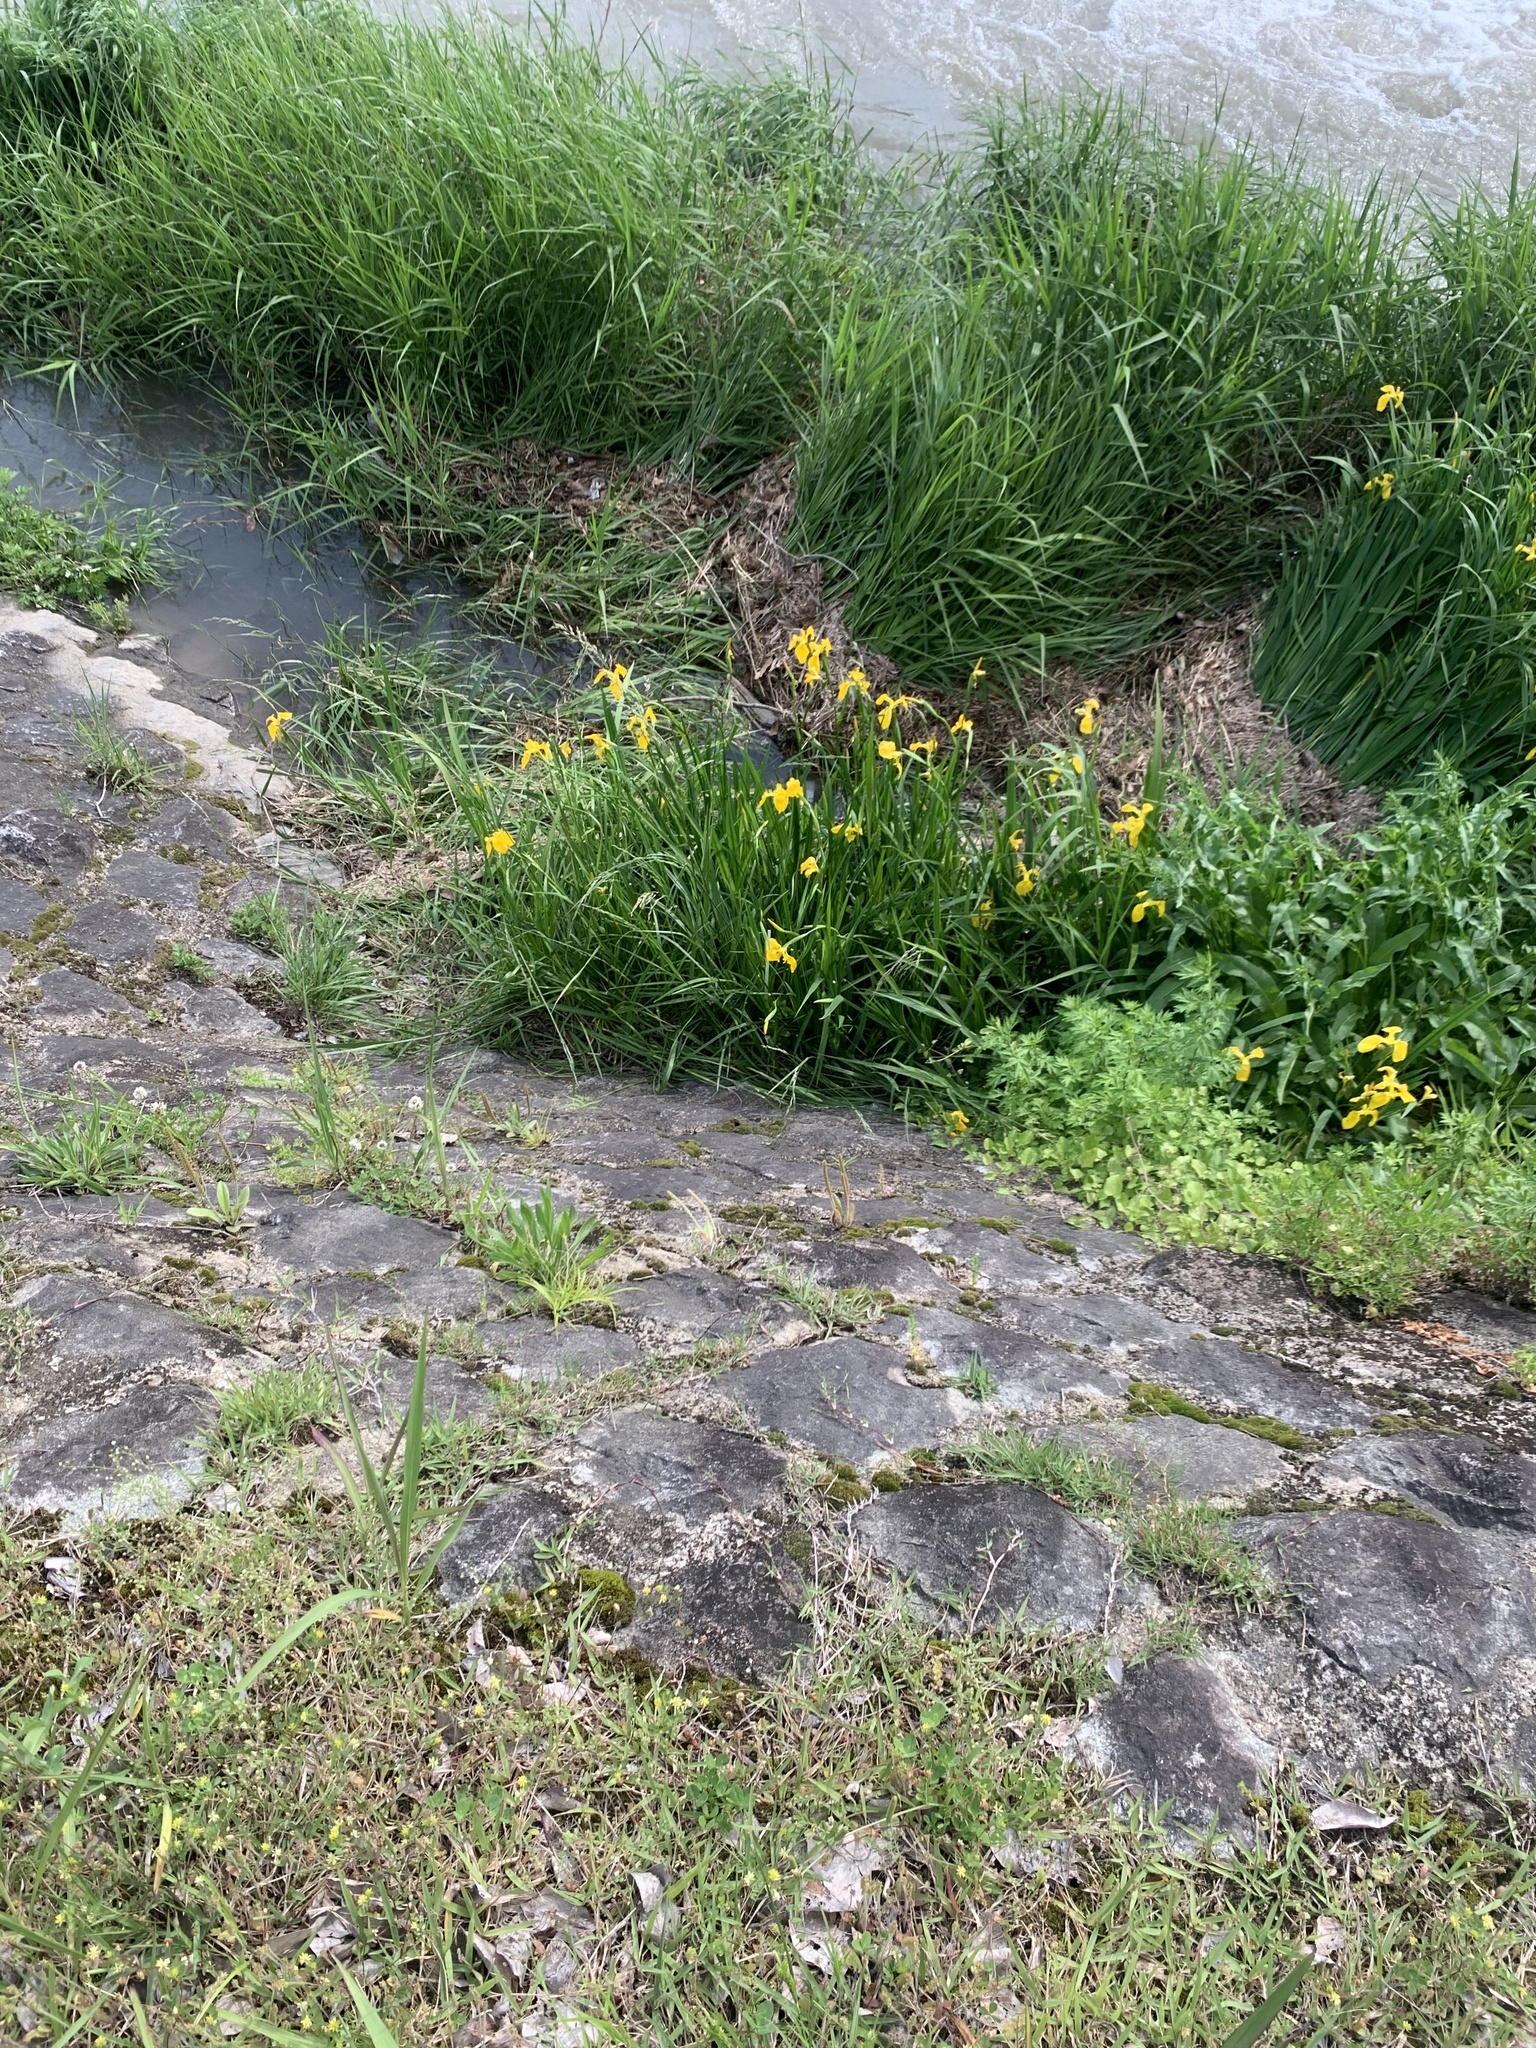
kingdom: Plantae
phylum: Tracheophyta
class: Liliopsida
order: Asparagales
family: Iridaceae
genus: Iris
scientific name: Iris pseudacorus
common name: Yellow flag
